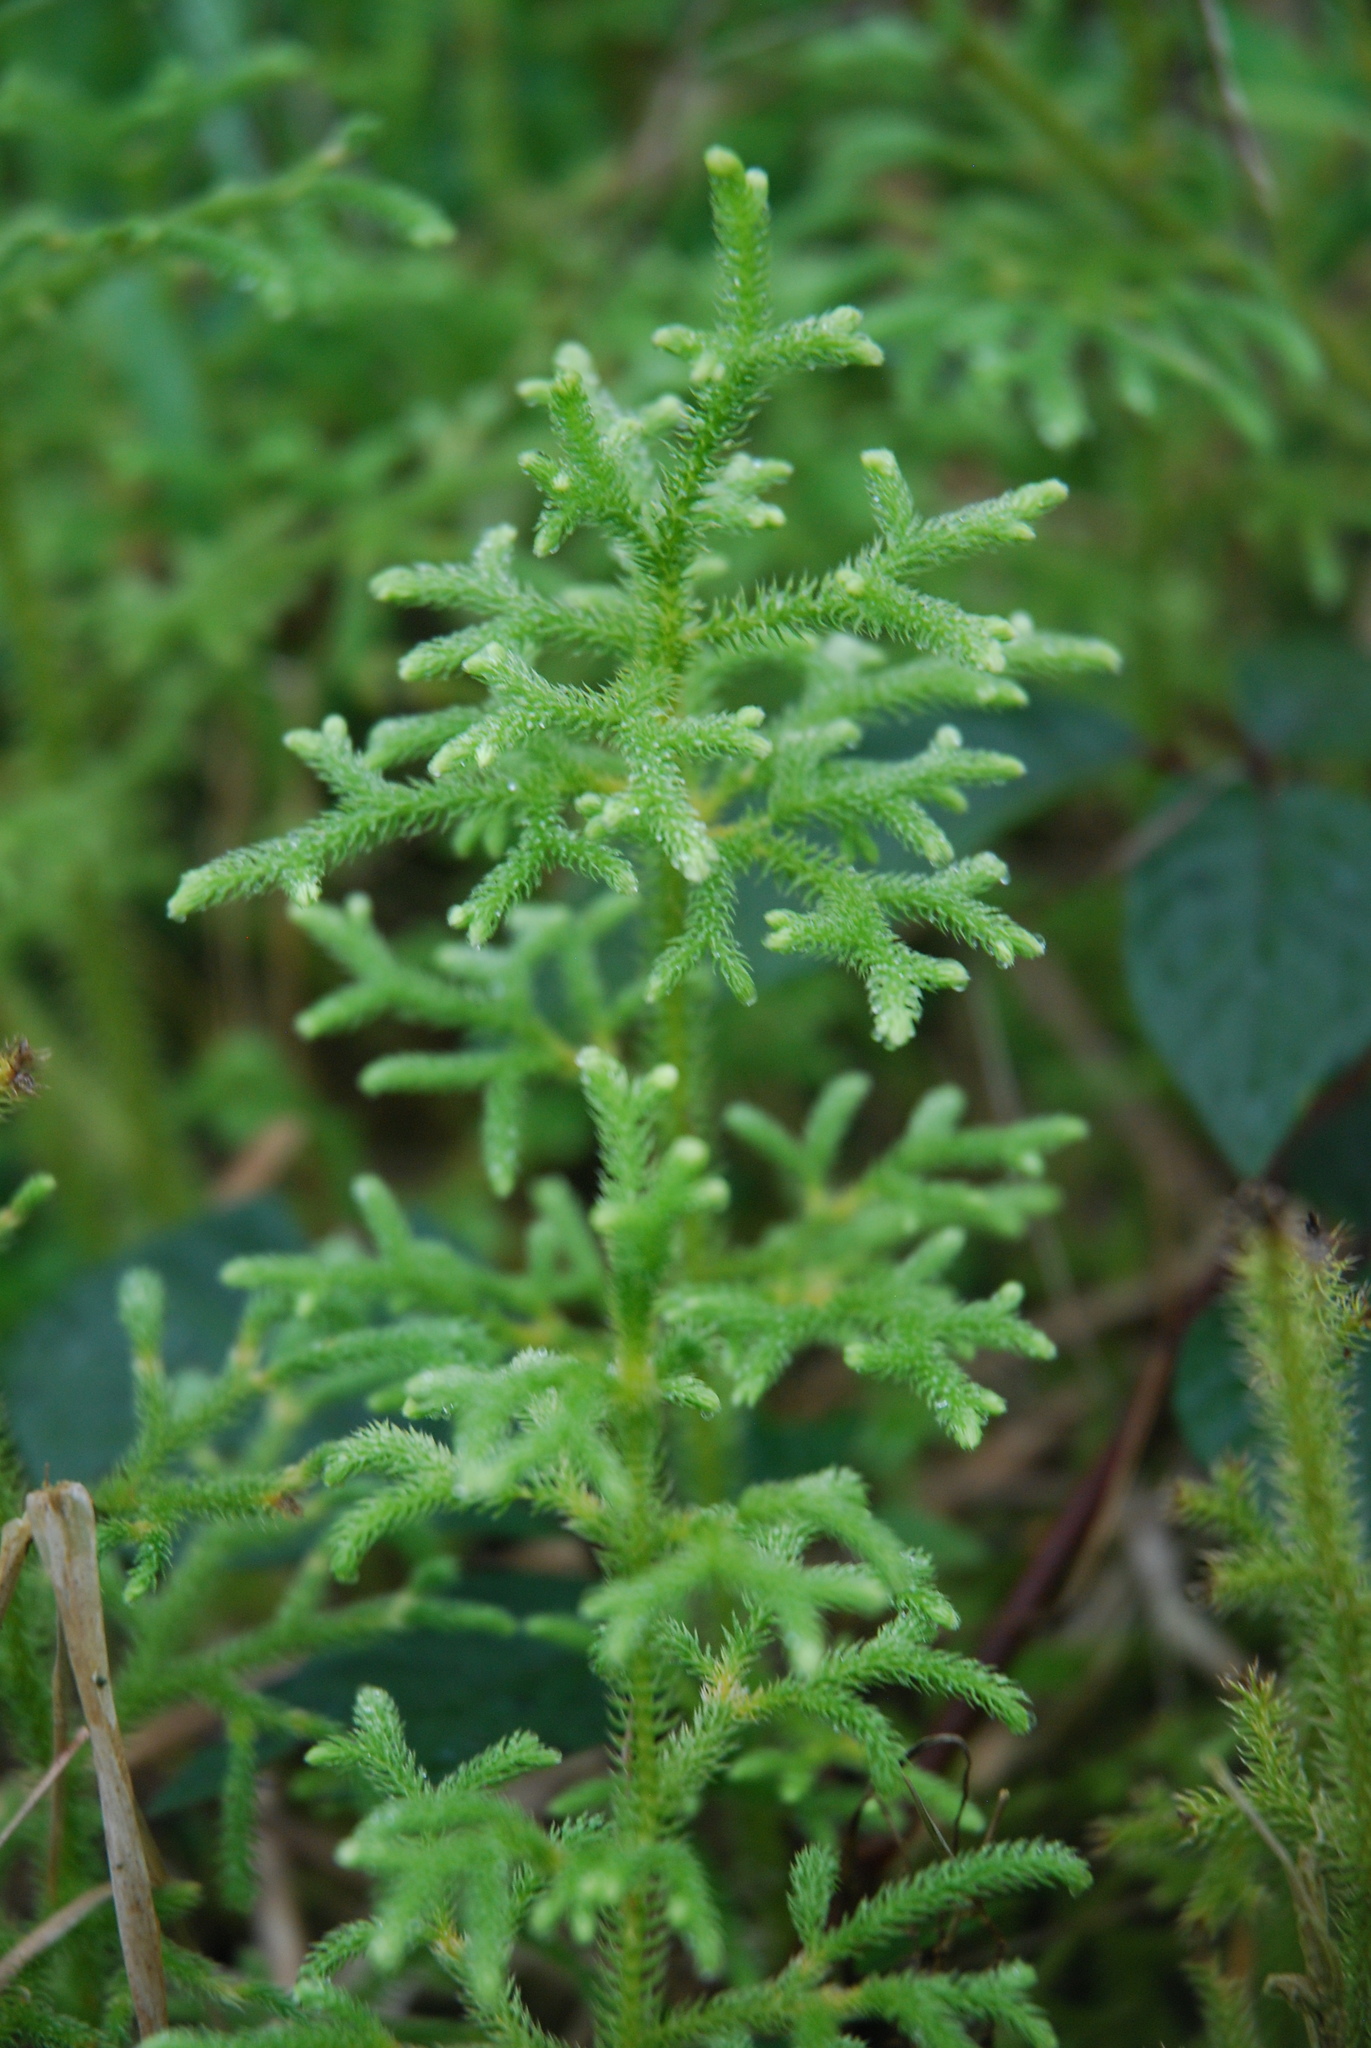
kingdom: Plantae
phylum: Tracheophyta
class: Lycopodiopsida
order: Lycopodiales
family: Lycopodiaceae
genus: Palhinhaea
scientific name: Palhinhaea cernua
